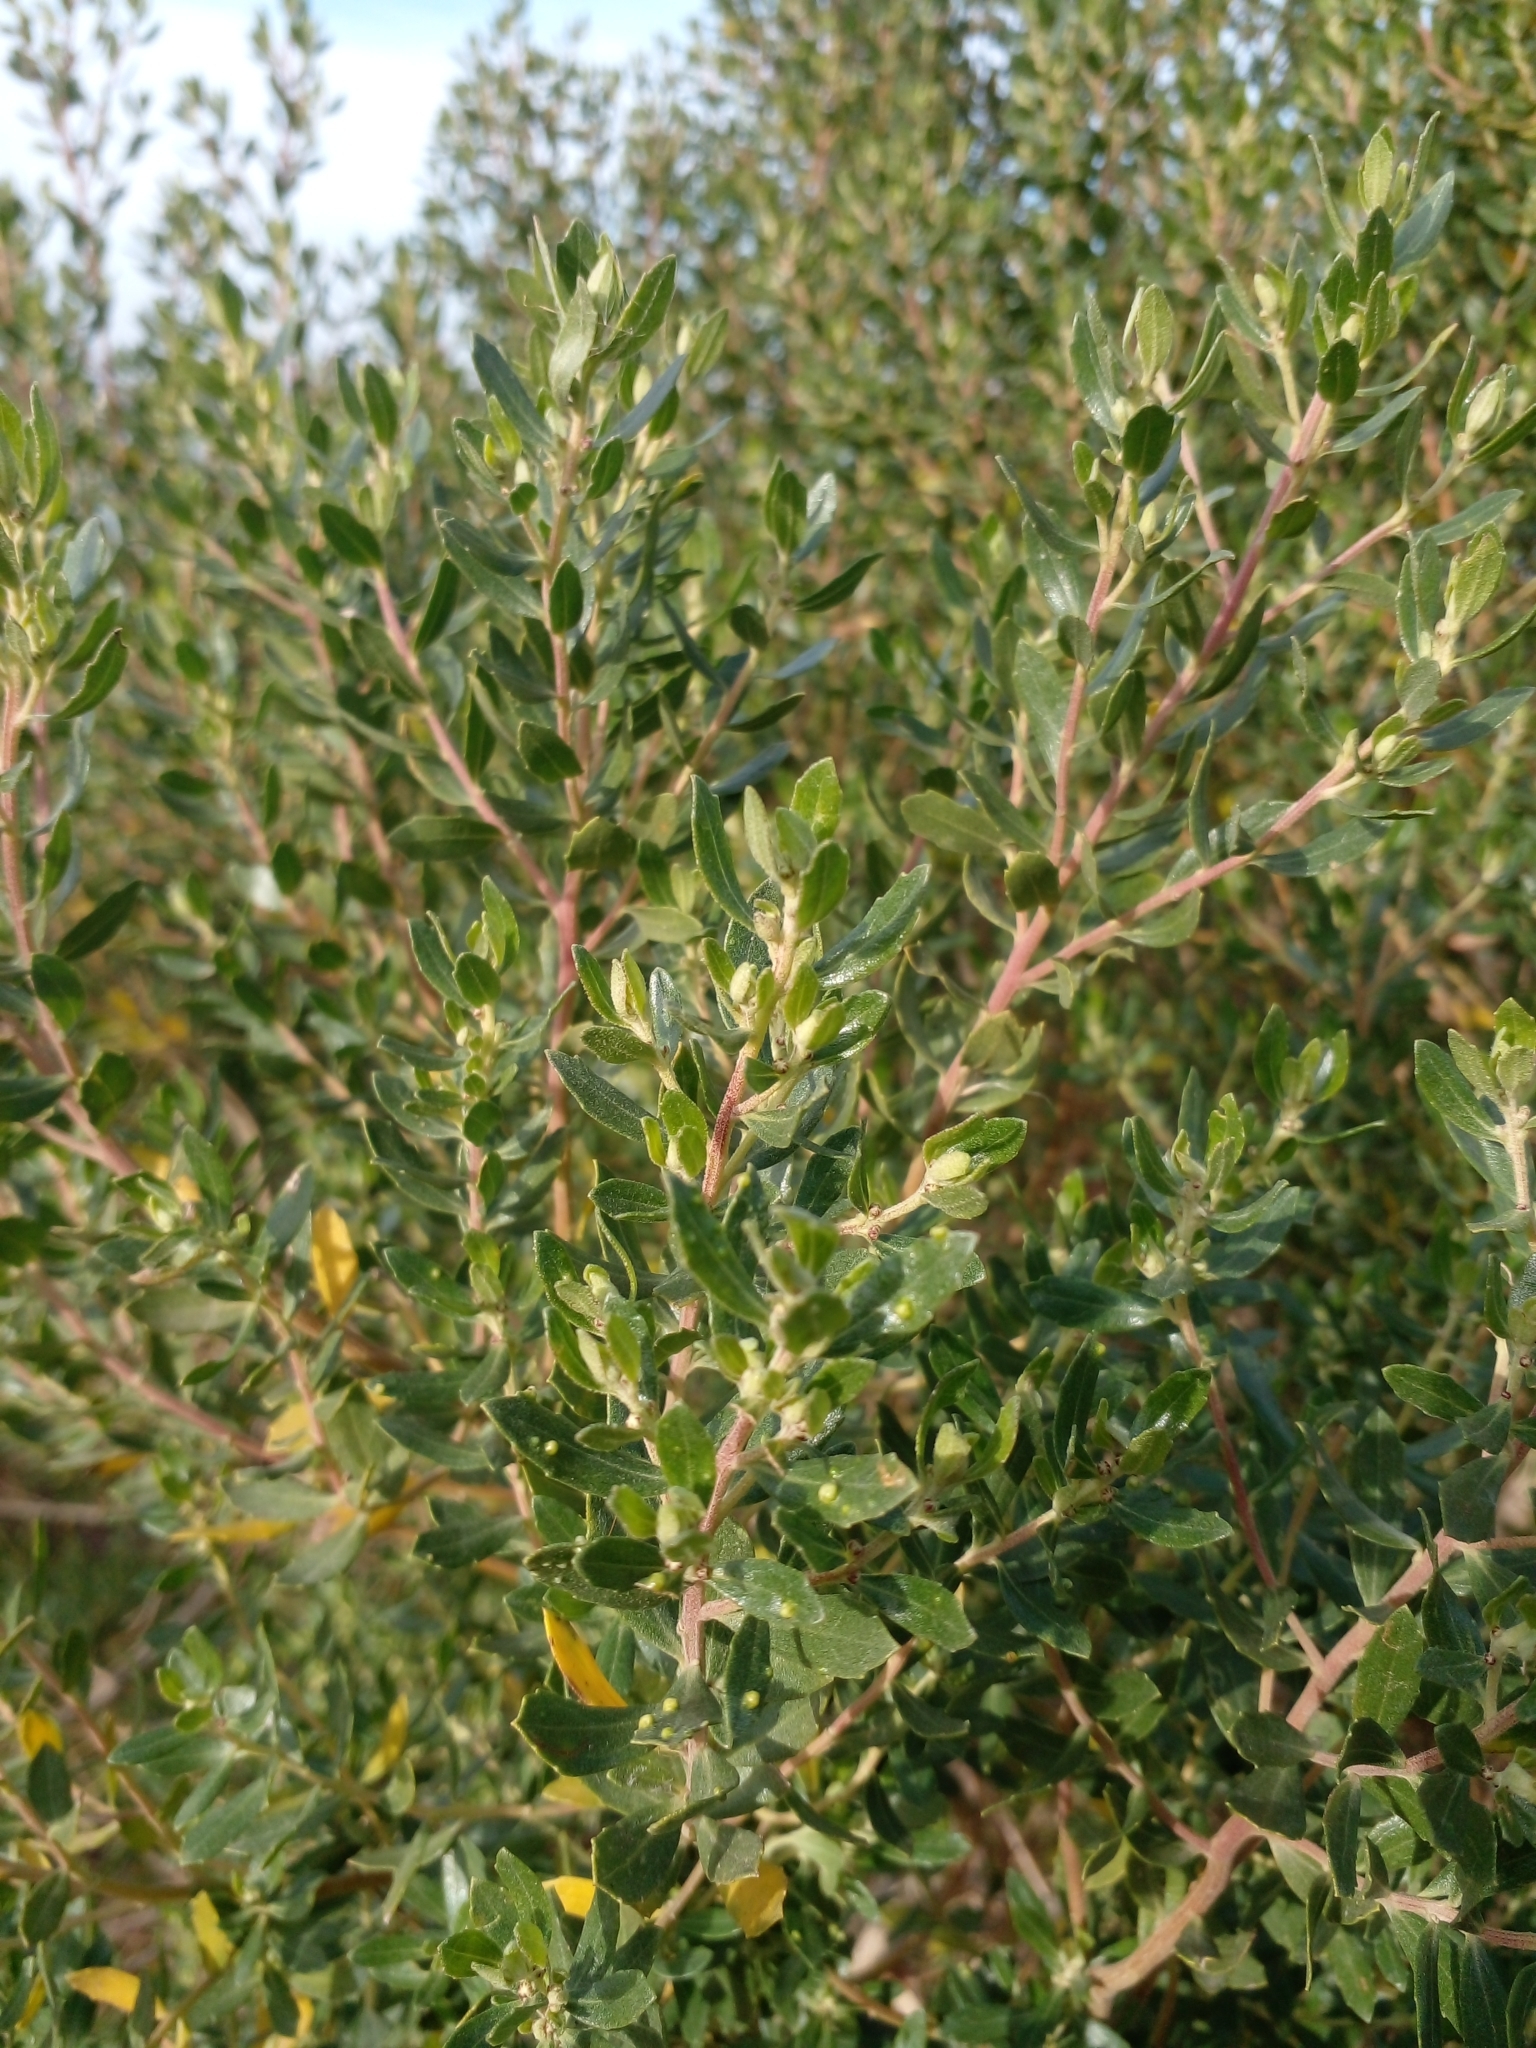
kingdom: Plantae
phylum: Tracheophyta
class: Magnoliopsida
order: Asterales
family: Asteraceae
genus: Baccharis
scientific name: Baccharis dracunculifolia
